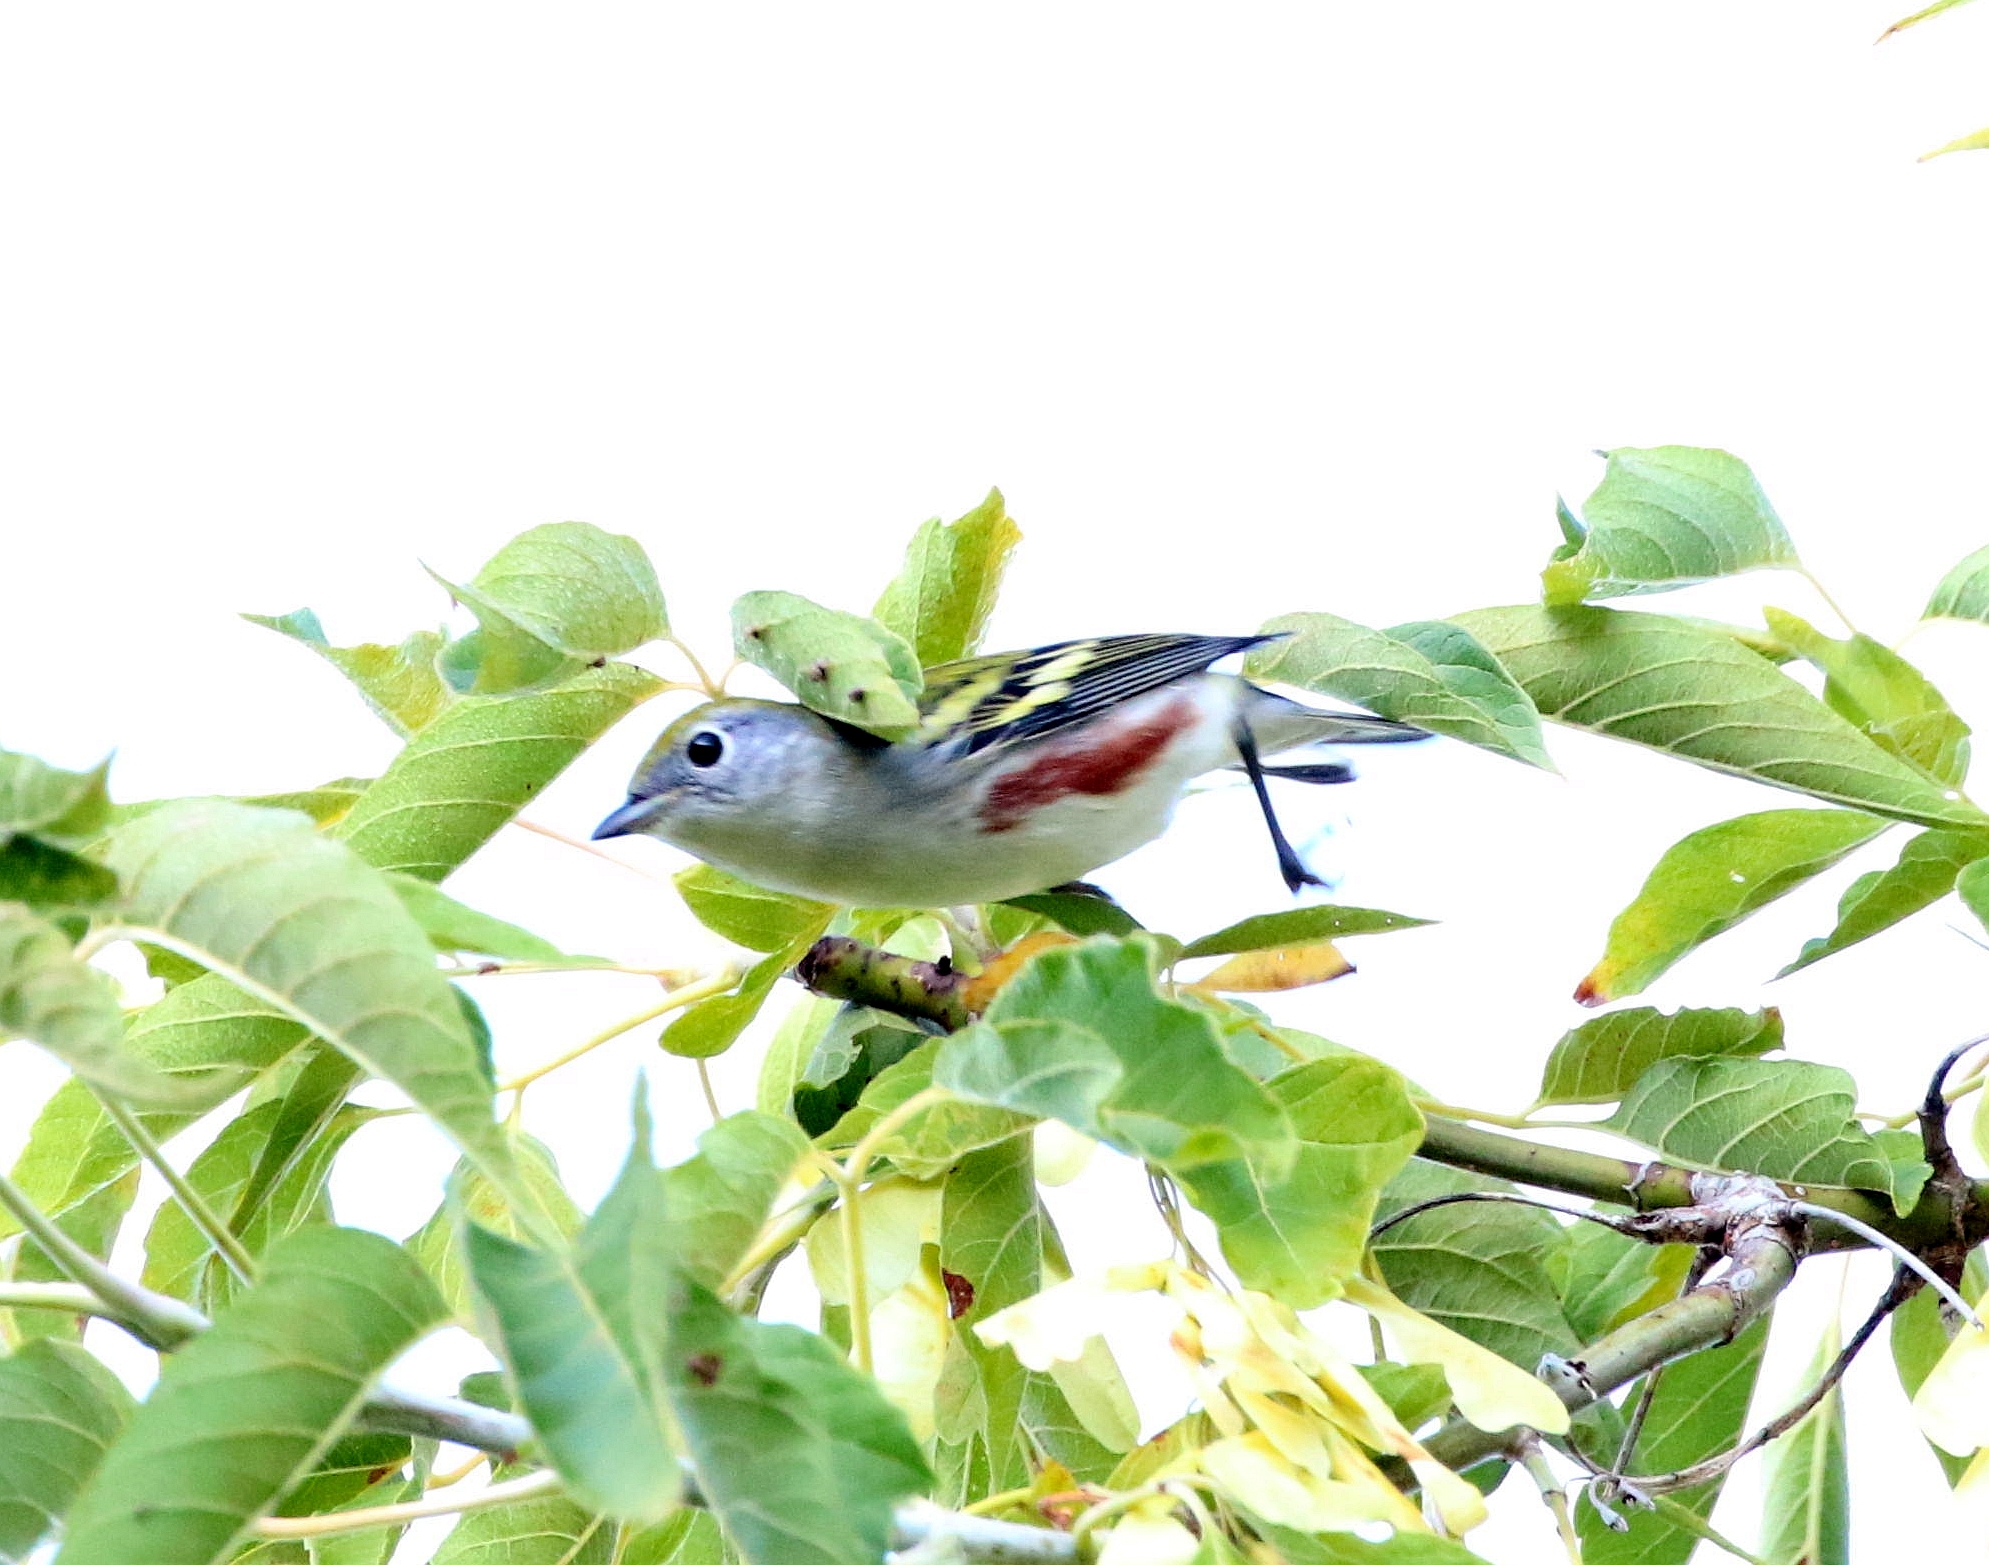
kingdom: Animalia
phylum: Chordata
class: Aves
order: Passeriformes
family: Parulidae
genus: Setophaga
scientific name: Setophaga pensylvanica
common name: Chestnut-sided warbler
